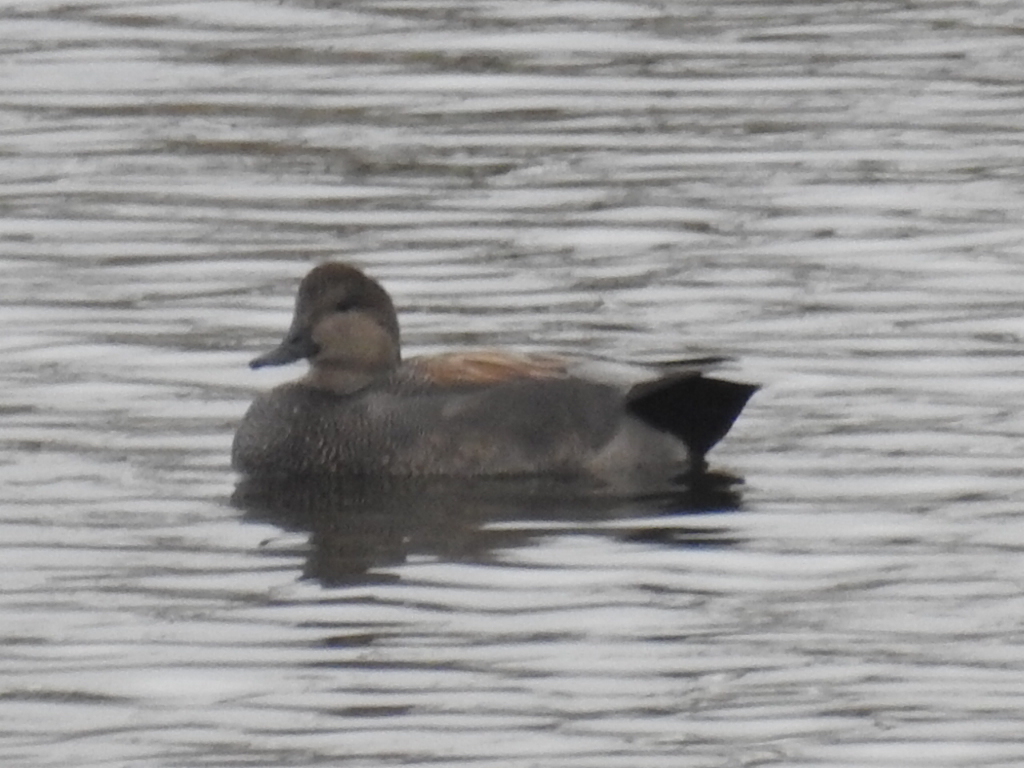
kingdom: Animalia
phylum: Chordata
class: Aves
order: Anseriformes
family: Anatidae
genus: Mareca
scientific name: Mareca strepera
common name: Gadwall
